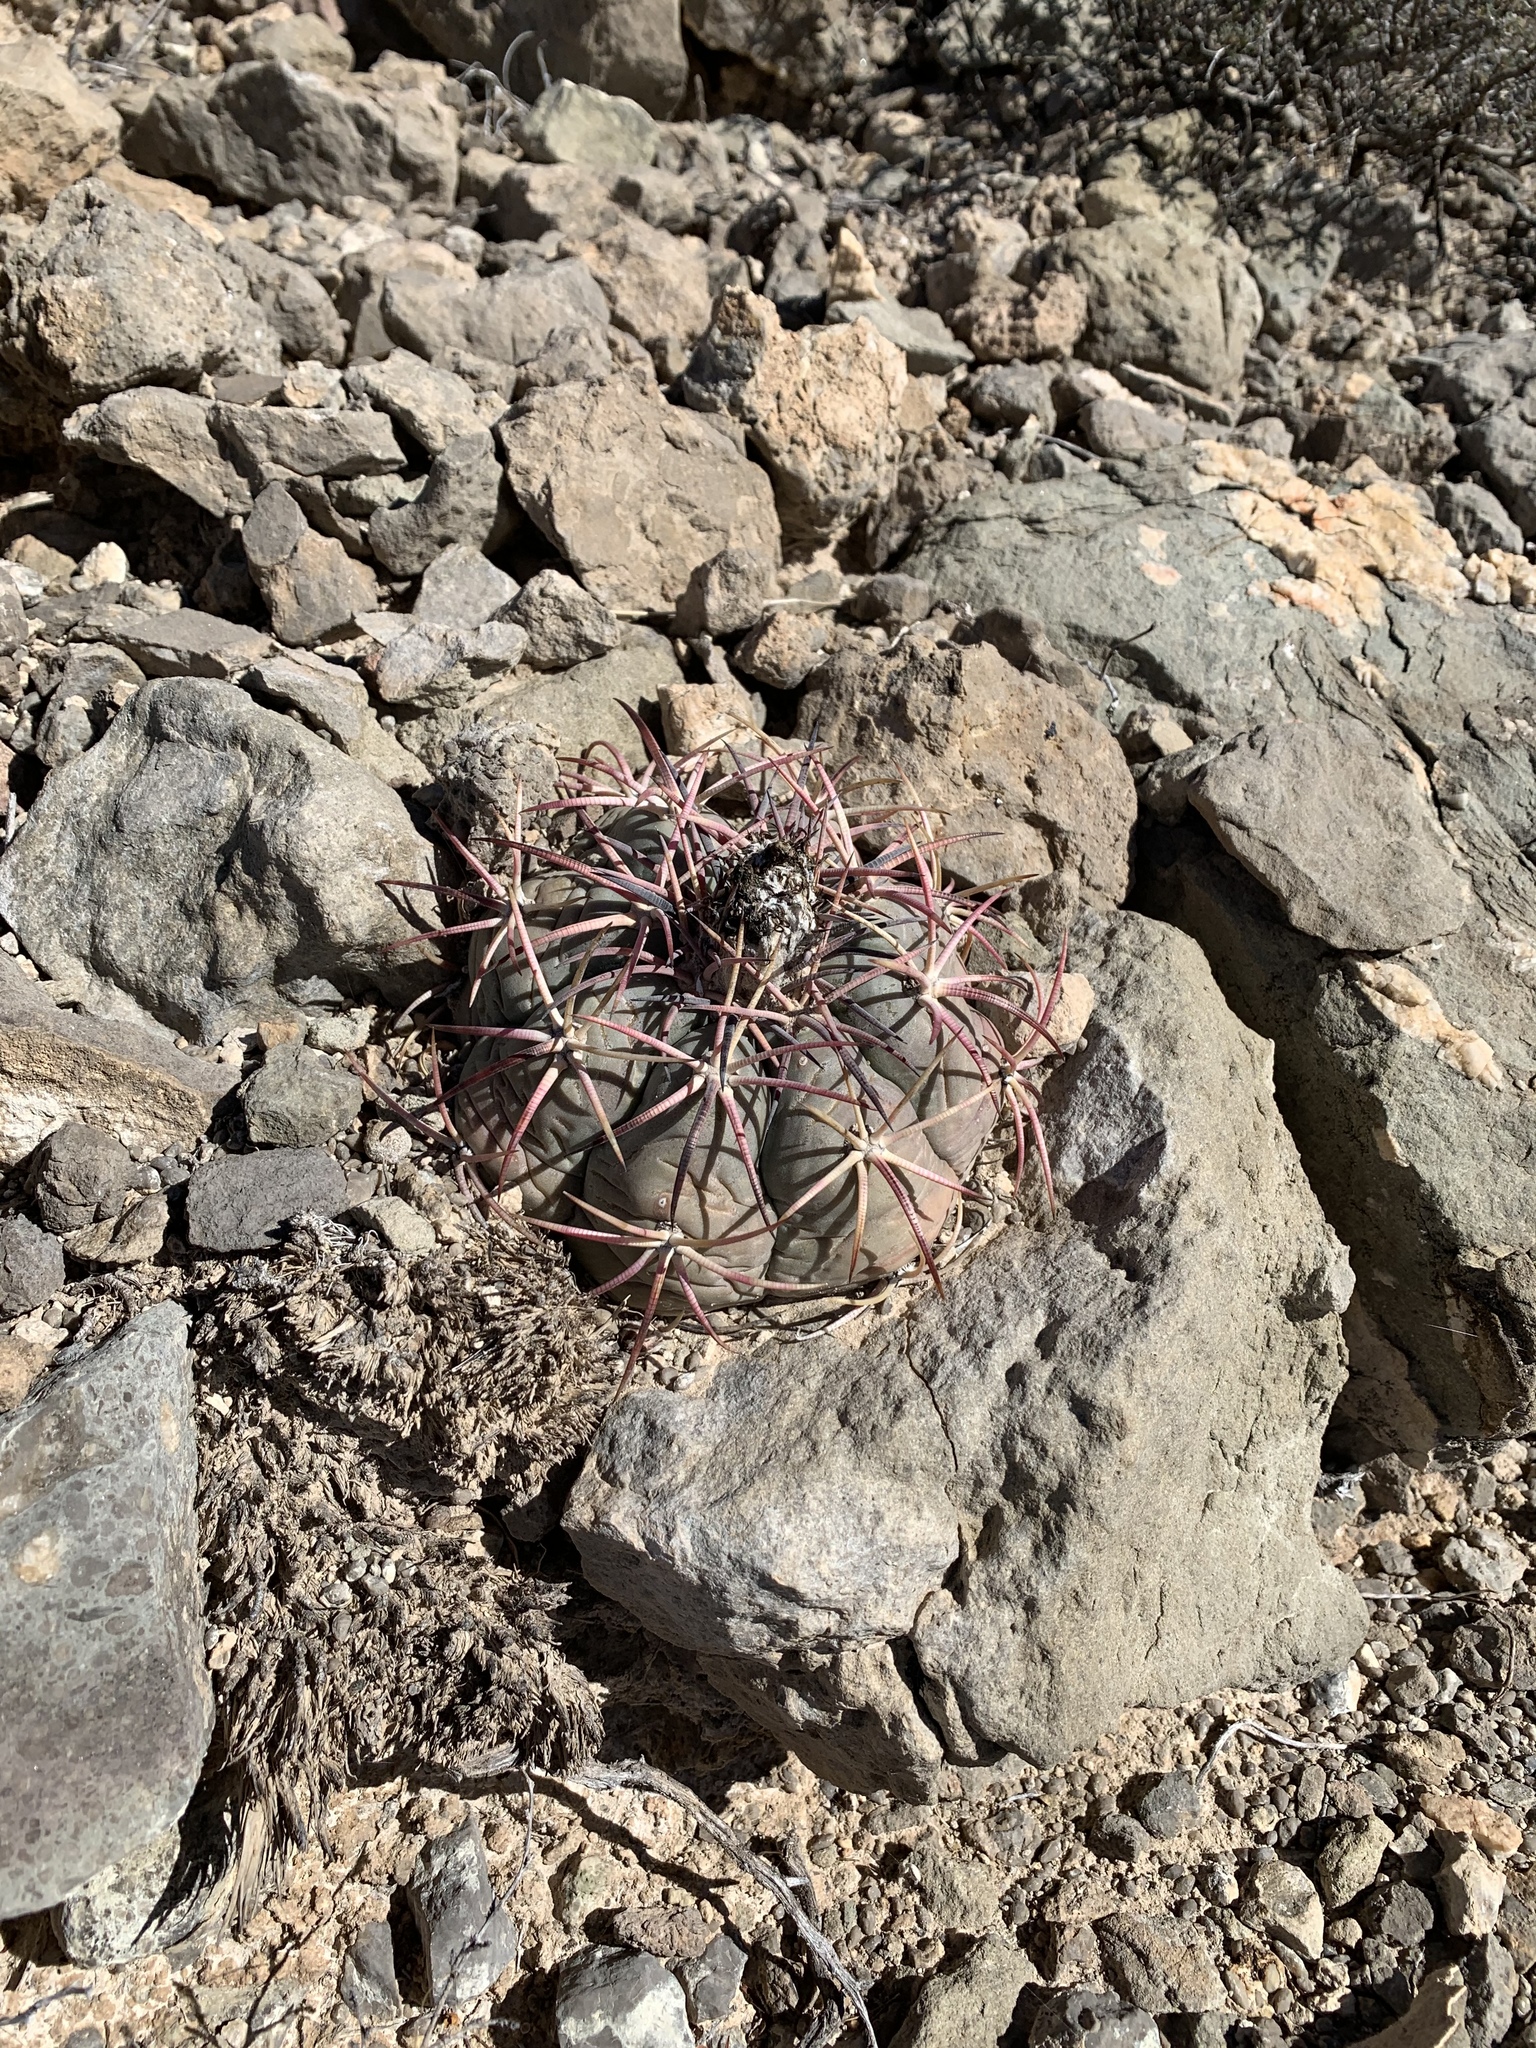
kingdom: Plantae
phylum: Tracheophyta
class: Magnoliopsida
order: Caryophyllales
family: Cactaceae
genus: Echinocactus
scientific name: Echinocactus horizonthalonius
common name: Devilshead
